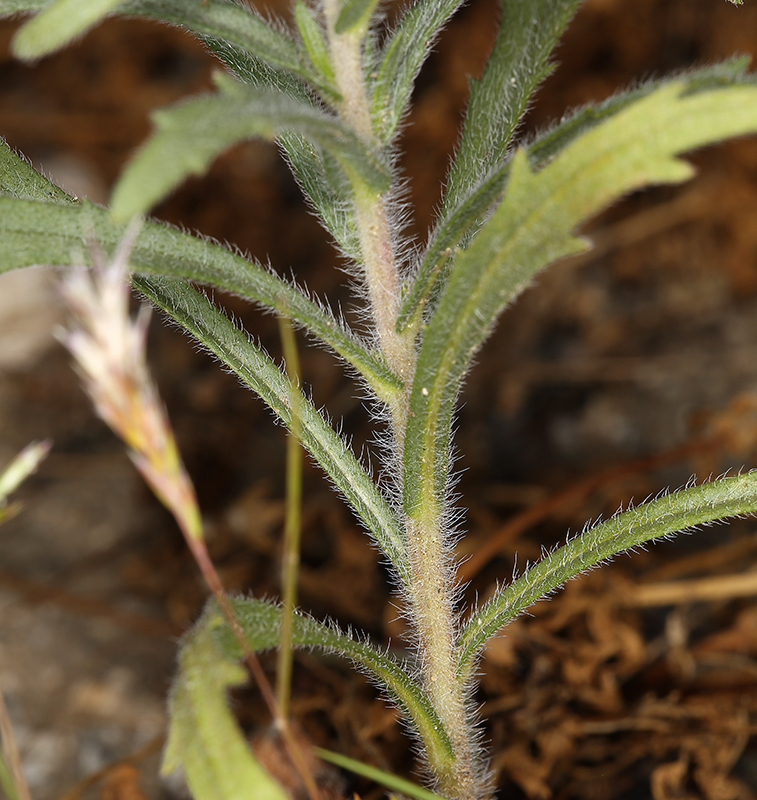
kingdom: Plantae
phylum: Tracheophyta
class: Magnoliopsida
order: Asterales
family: Asteraceae
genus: Deinandra
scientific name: Deinandra pallida
